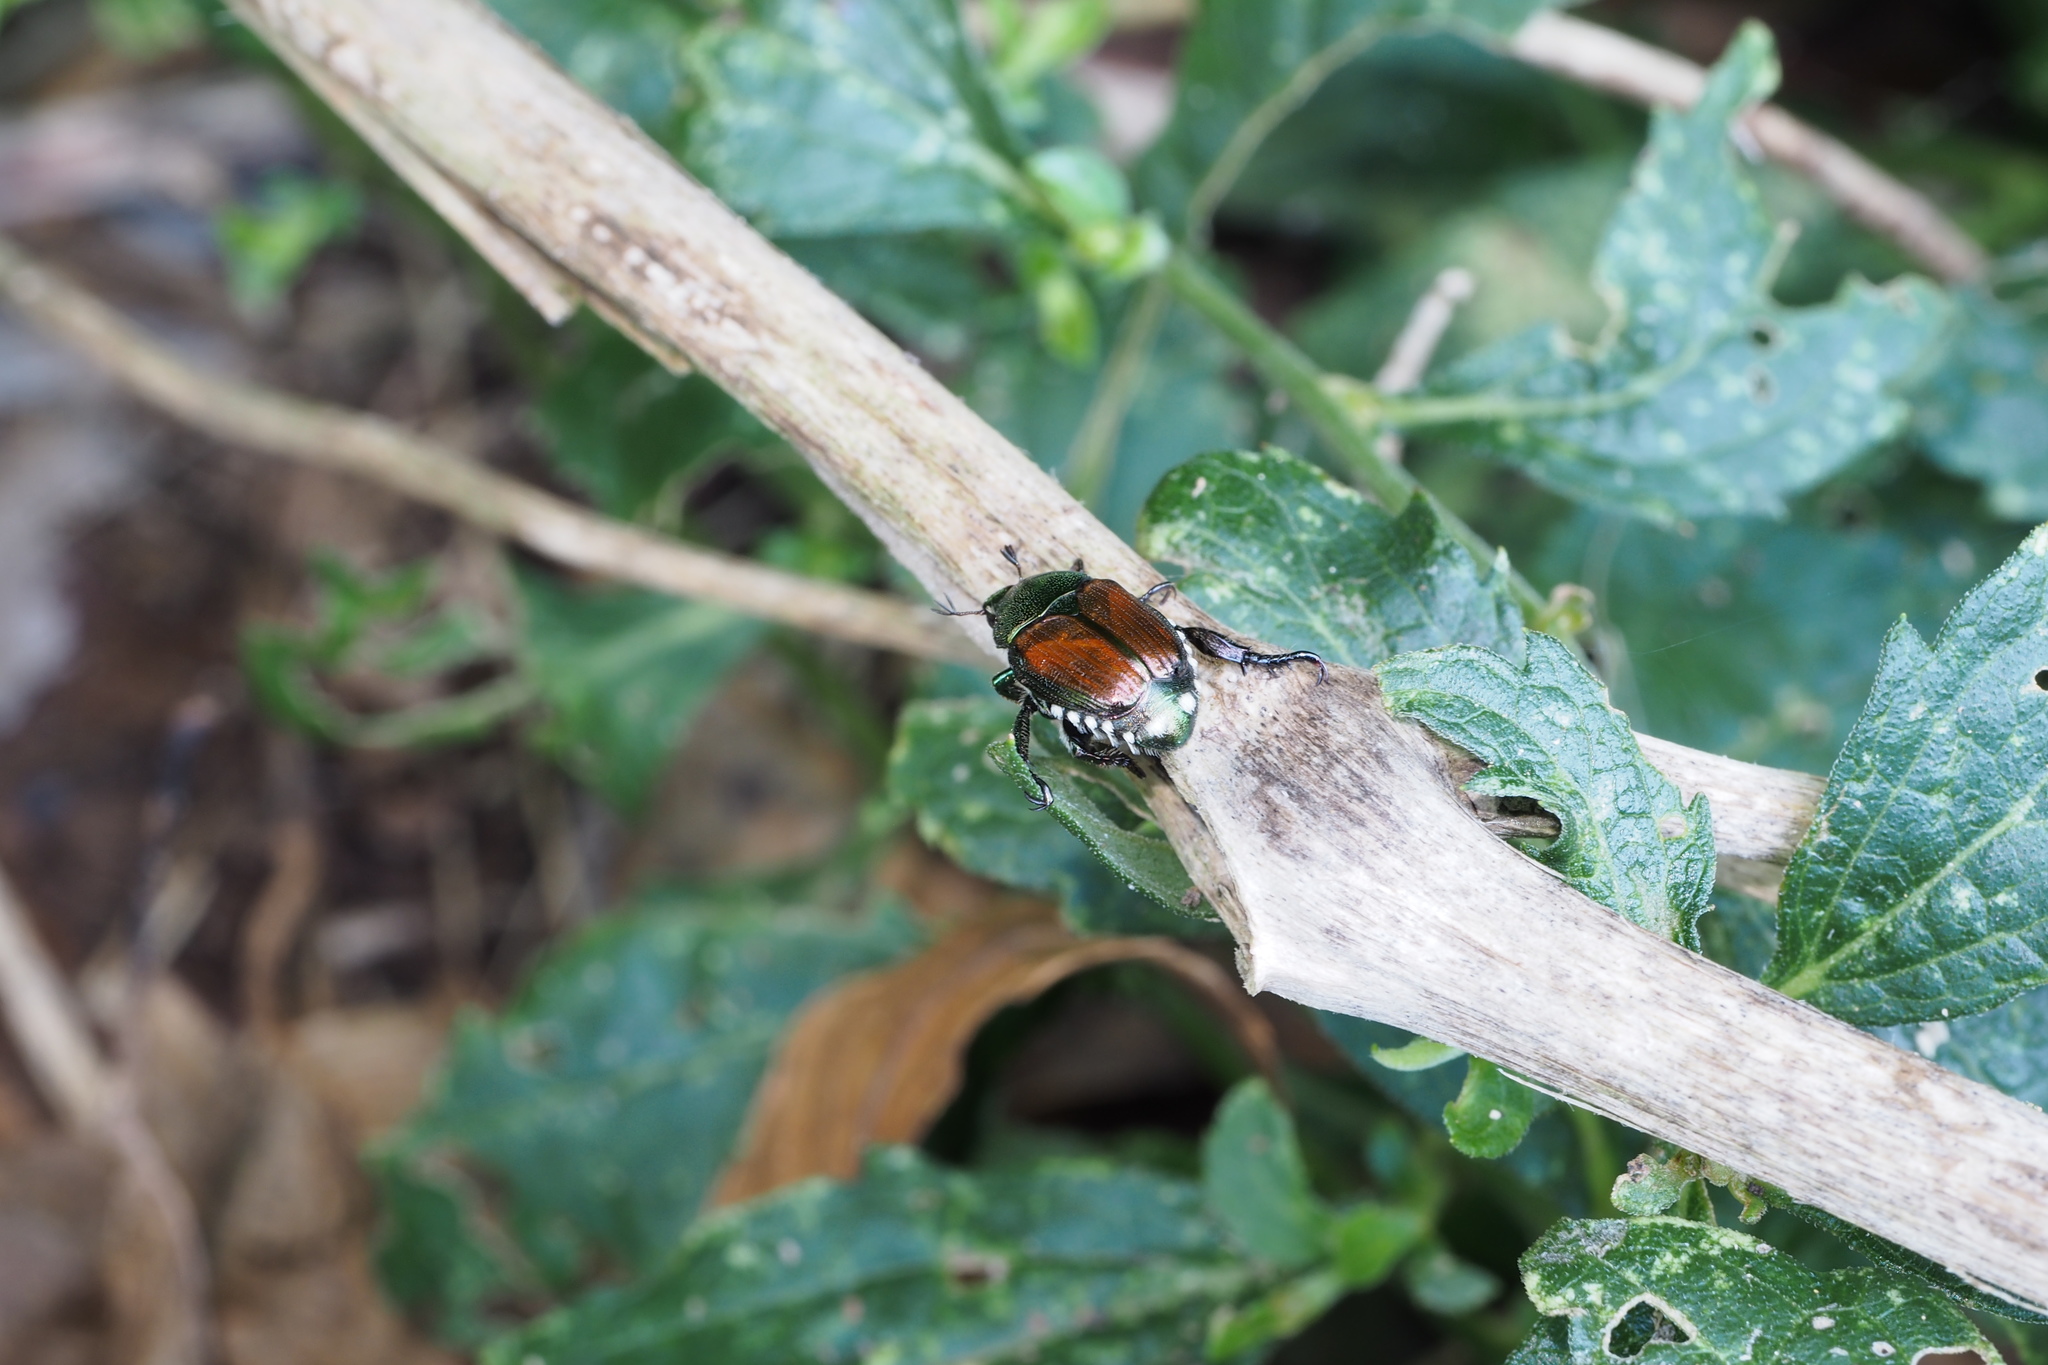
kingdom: Animalia
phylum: Arthropoda
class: Insecta
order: Coleoptera
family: Scarabaeidae
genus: Popillia
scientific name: Popillia japonica
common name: Japanese beetle
